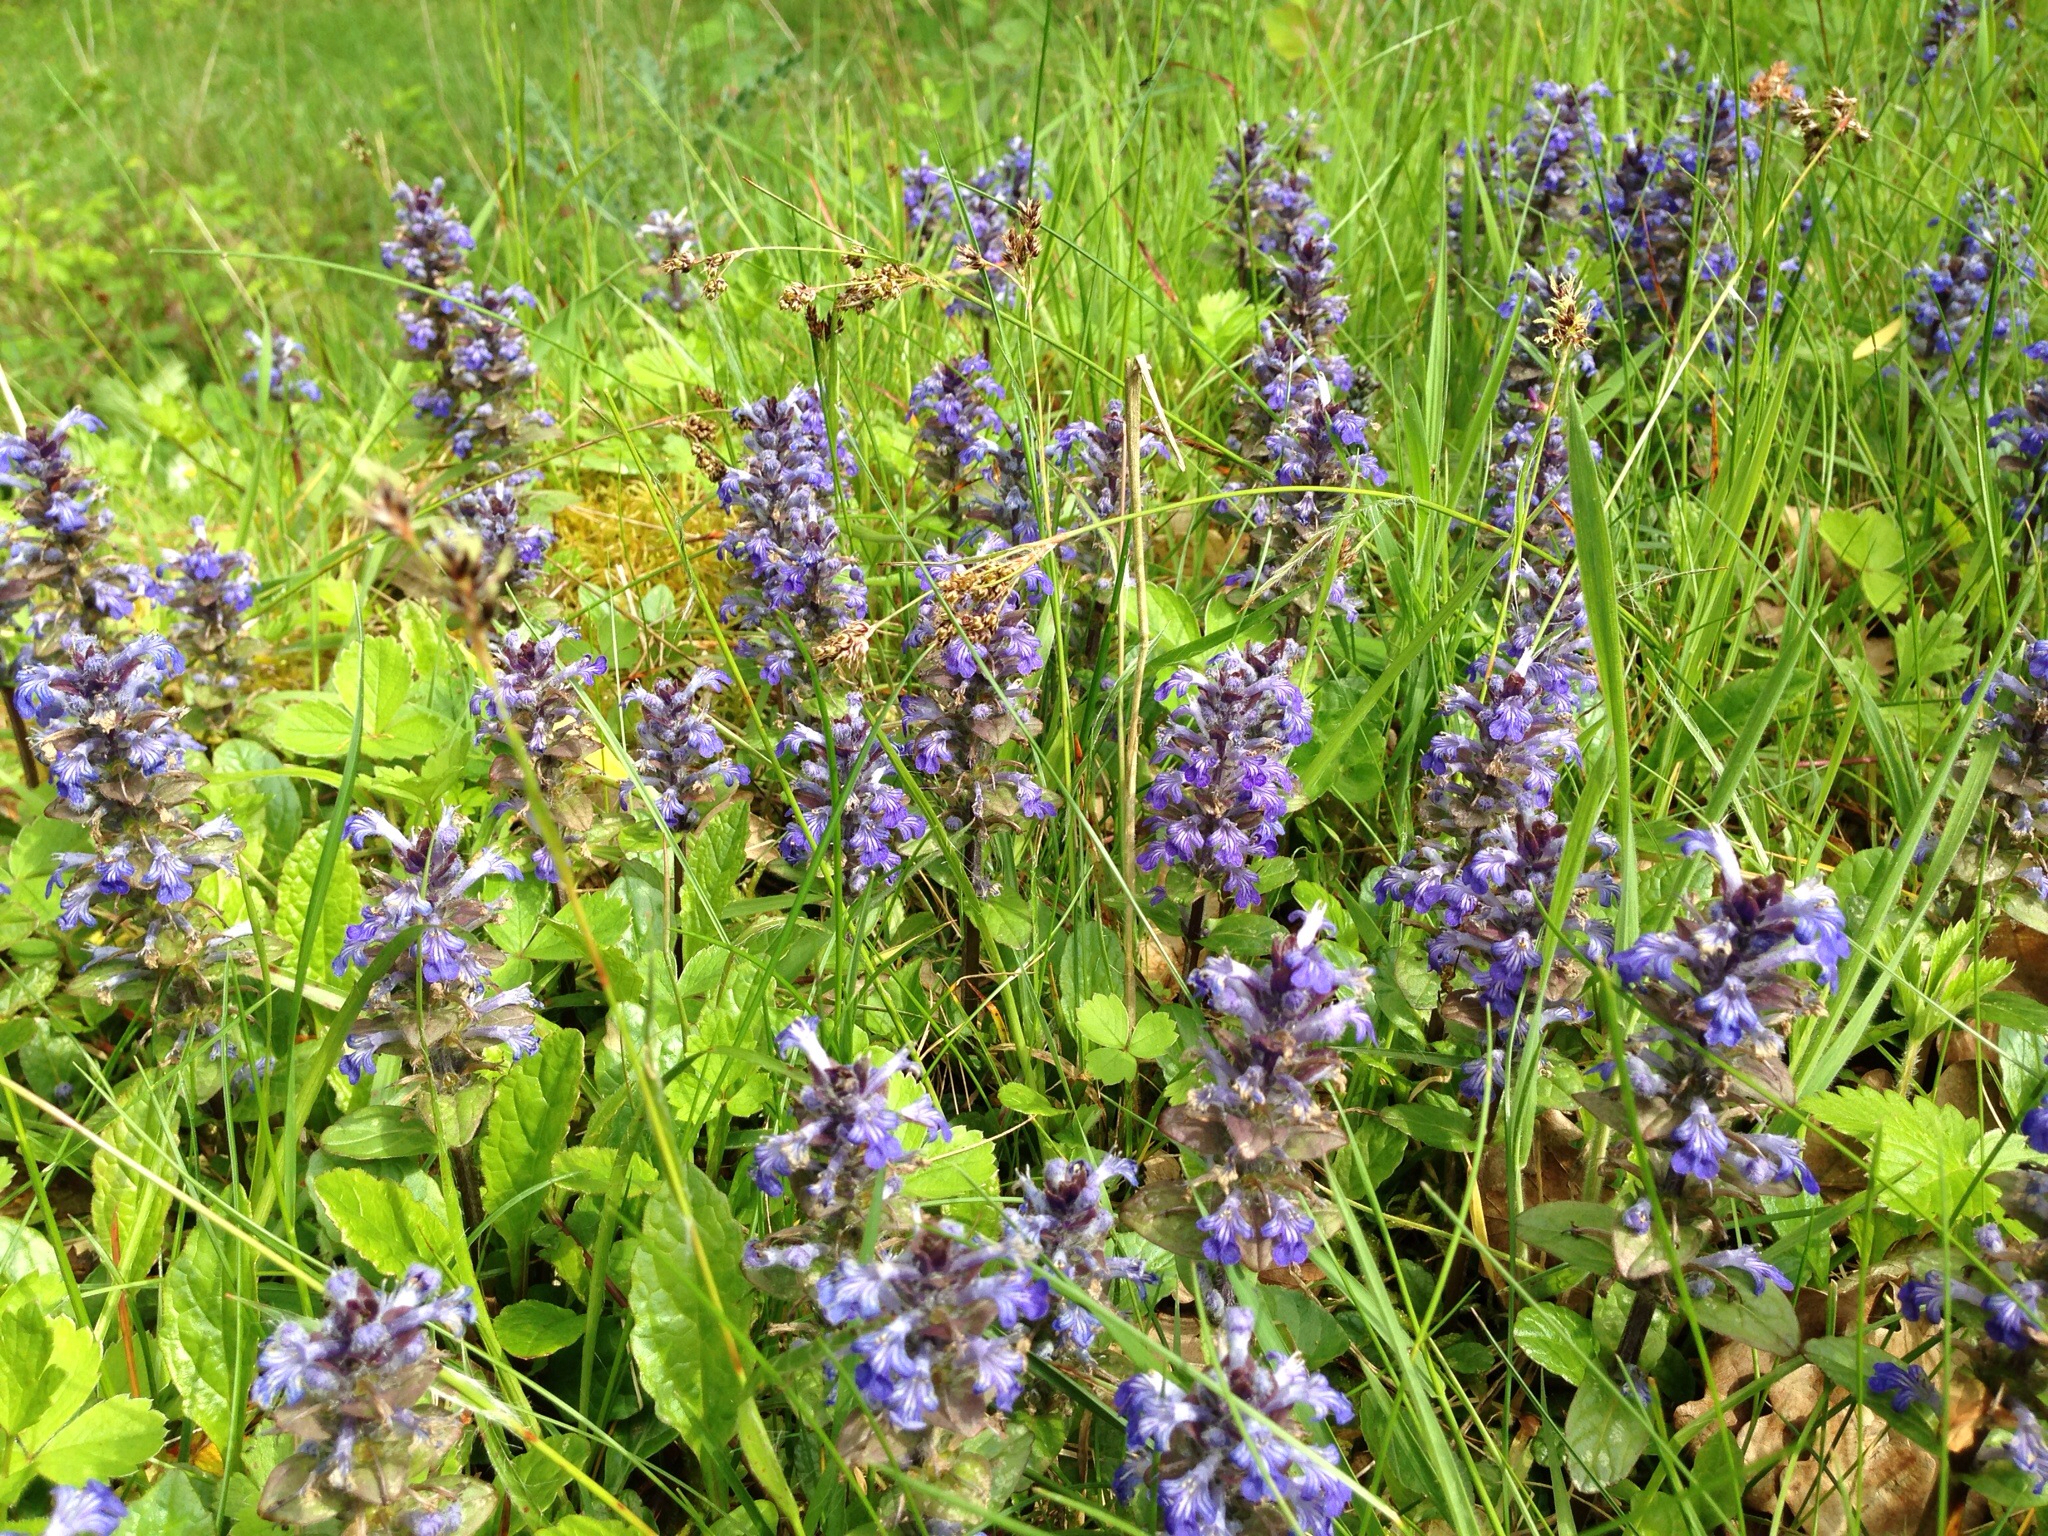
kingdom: Plantae
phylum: Tracheophyta
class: Magnoliopsida
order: Lamiales
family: Lamiaceae
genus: Ajuga
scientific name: Ajuga reptans
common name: Bugle
